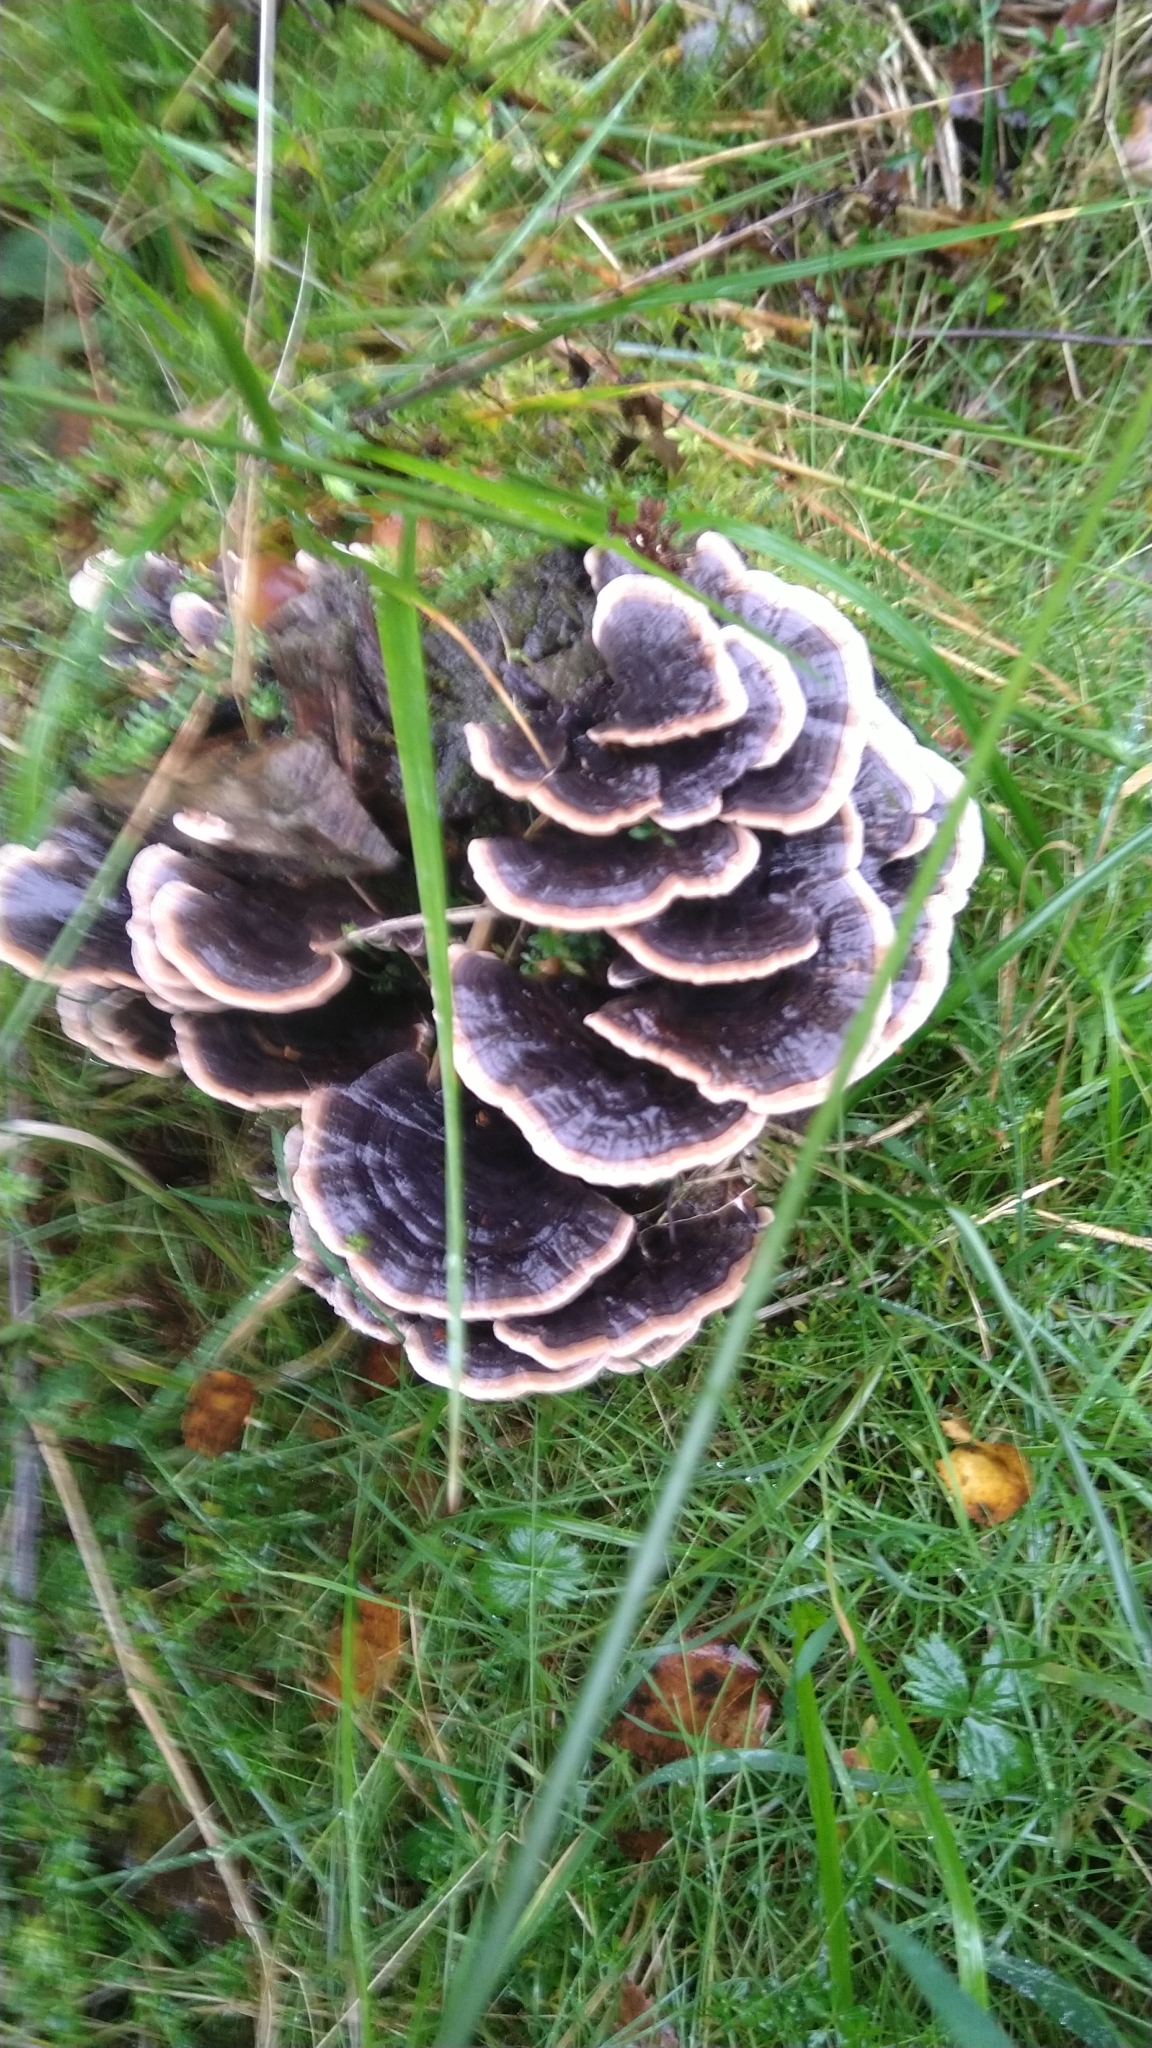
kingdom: Fungi
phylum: Basidiomycota
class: Agaricomycetes
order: Polyporales
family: Polyporaceae
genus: Trametes
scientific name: Trametes versicolor
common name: Turkeytail
